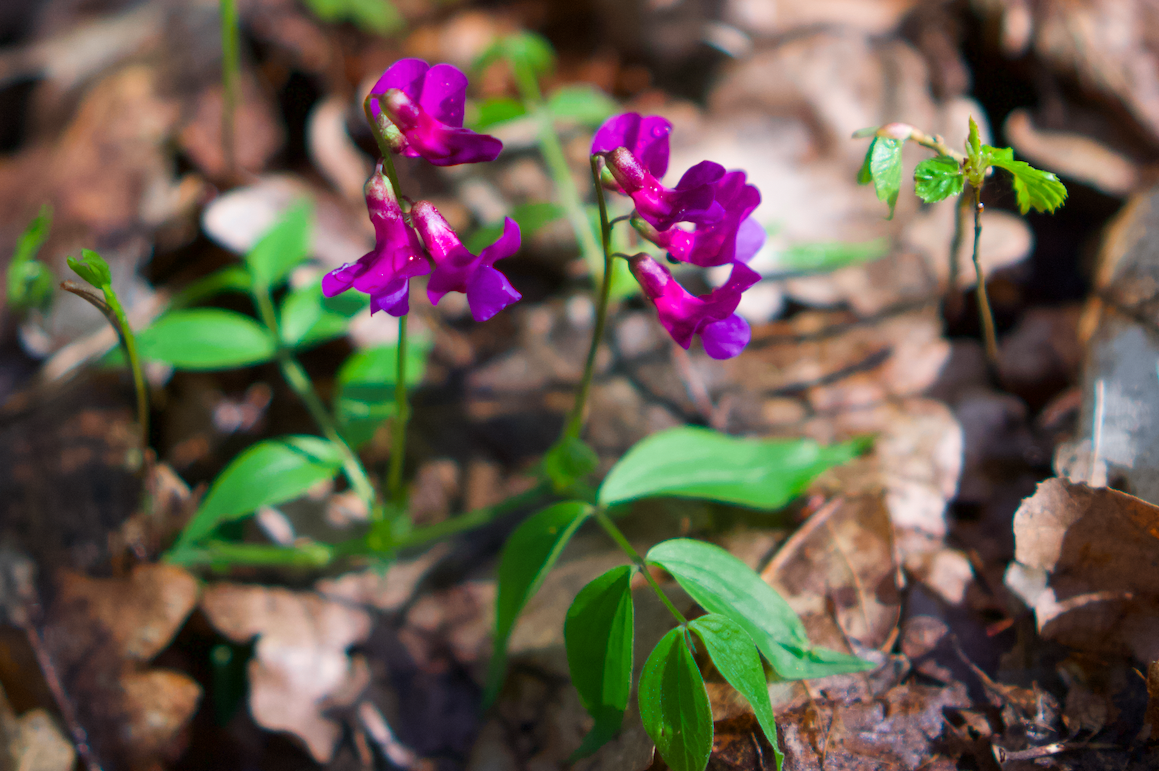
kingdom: Plantae
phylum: Tracheophyta
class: Magnoliopsida
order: Fabales
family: Fabaceae
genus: Lathyrus
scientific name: Lathyrus vernus
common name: Spring pea
